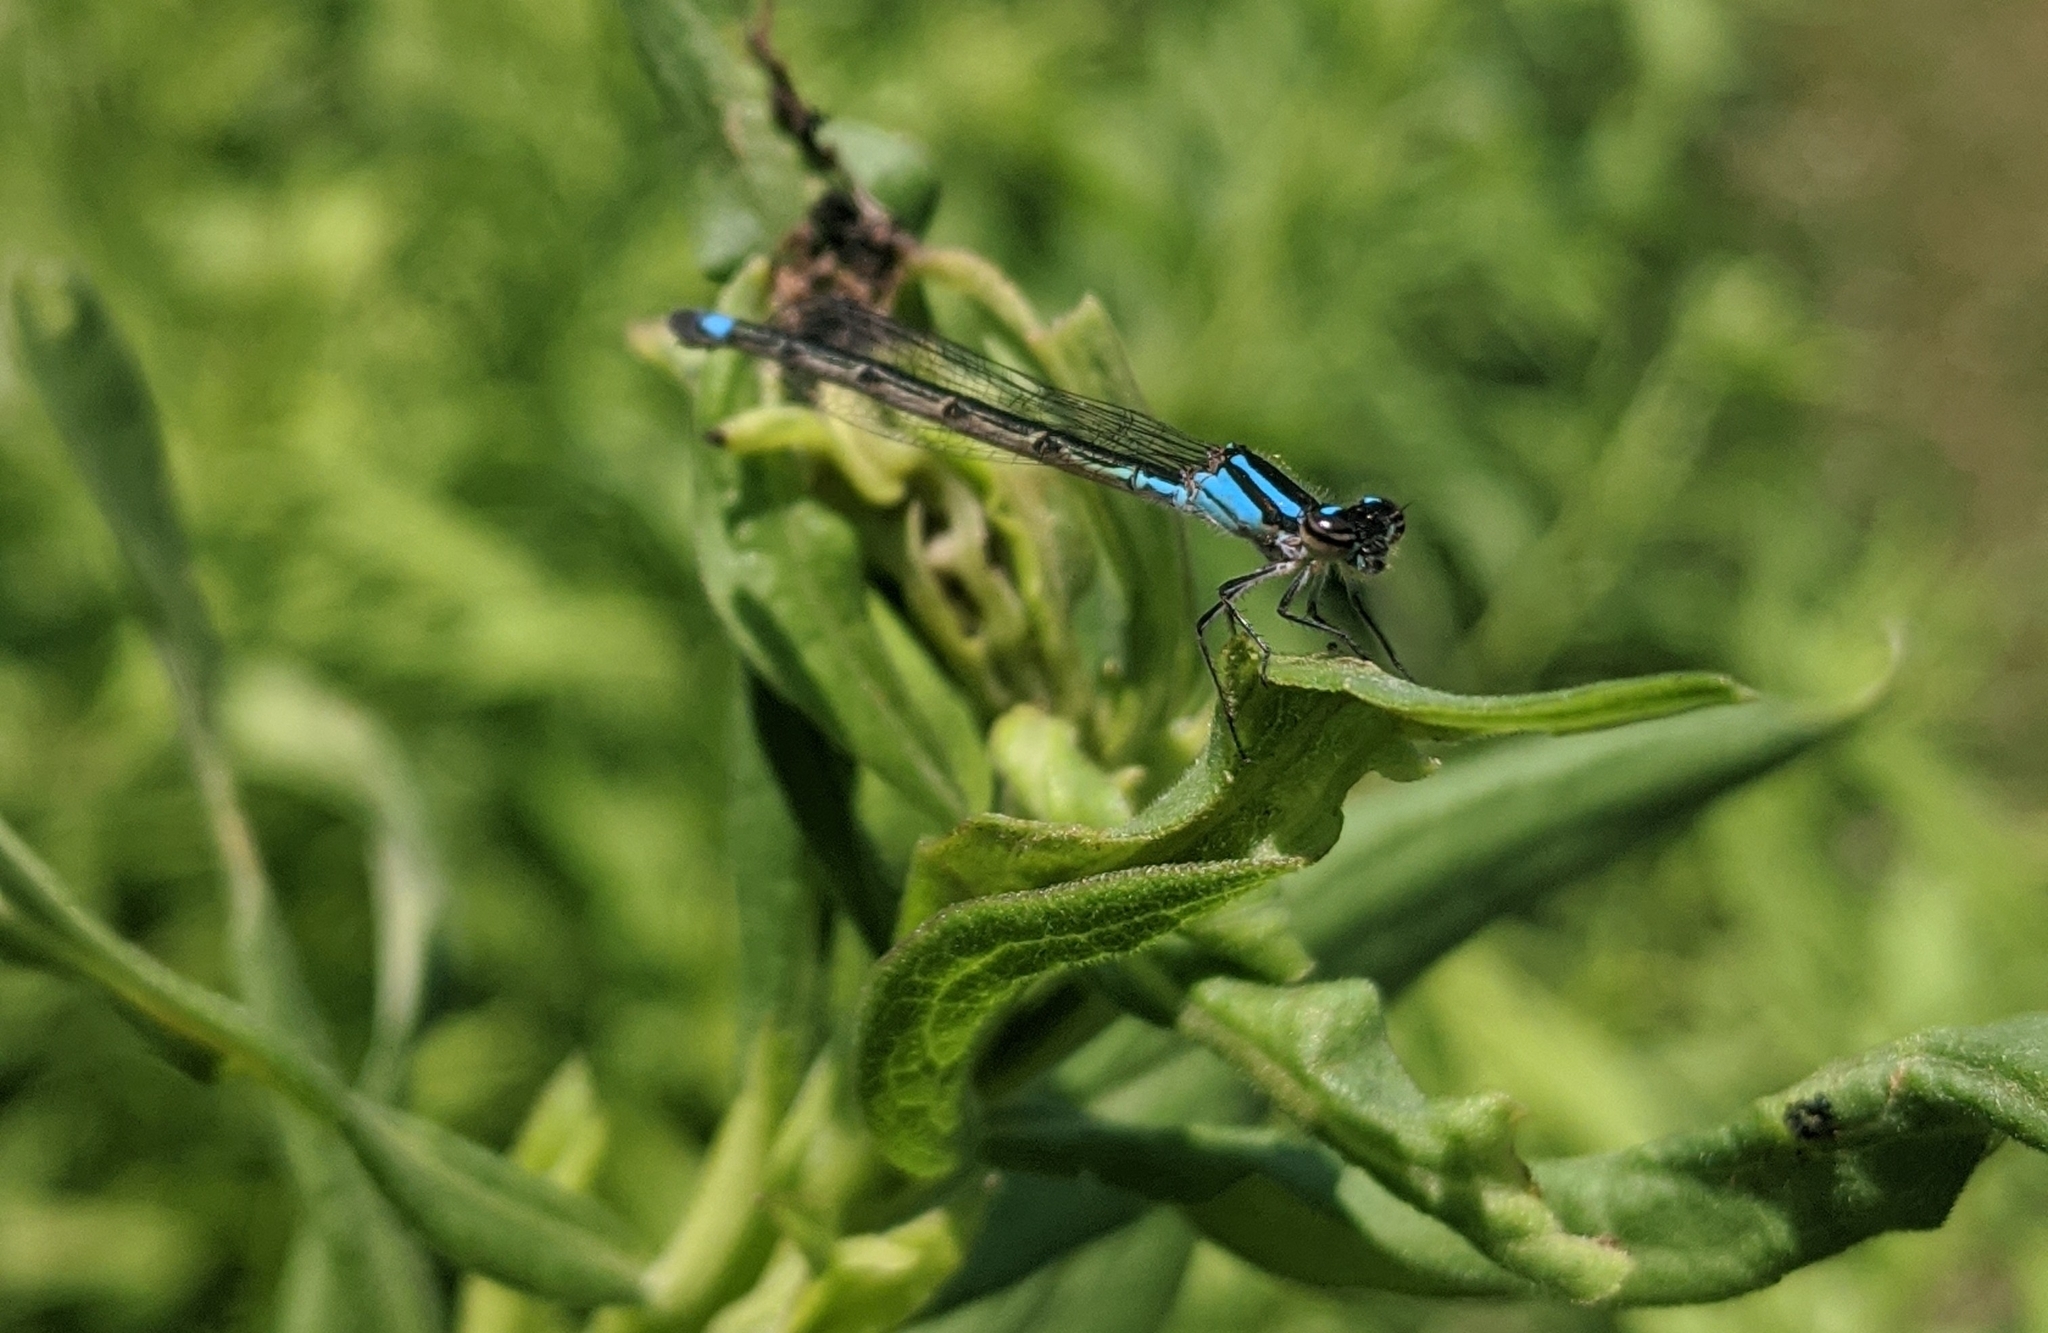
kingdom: Animalia
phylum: Arthropoda
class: Insecta
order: Odonata
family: Coenagrionidae
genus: Enallagma
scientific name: Enallagma geminatum
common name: Skimming bluet
